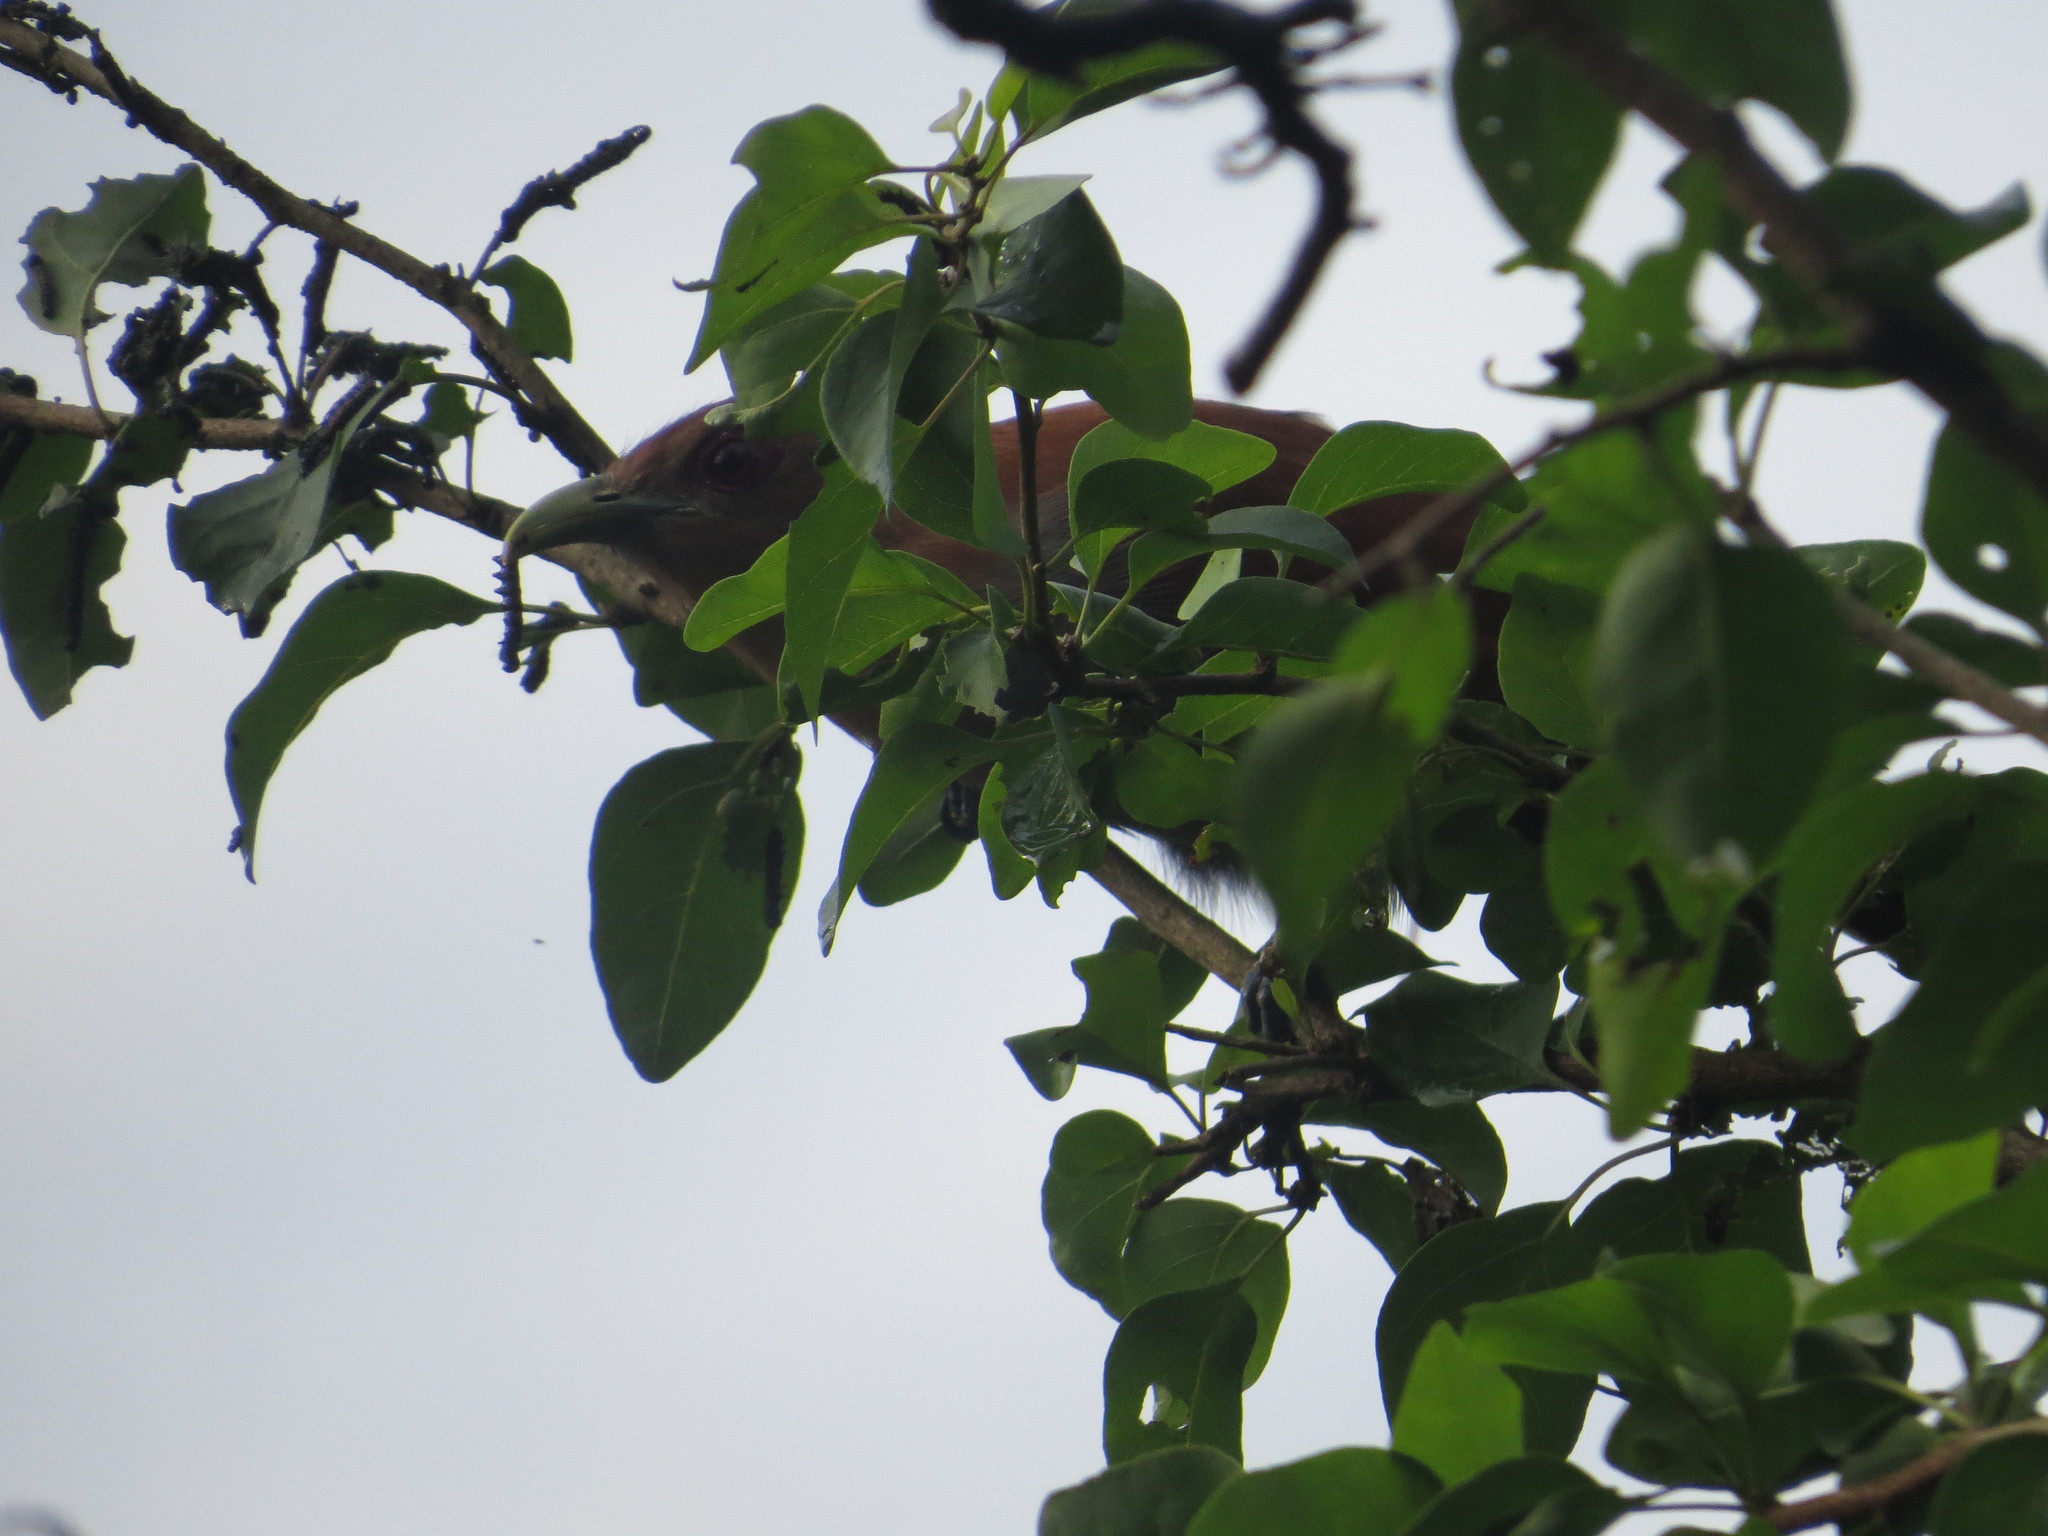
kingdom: Animalia
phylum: Chordata
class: Aves
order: Cuculiformes
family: Cuculidae
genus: Piaya
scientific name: Piaya cayana
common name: Squirrel cuckoo
